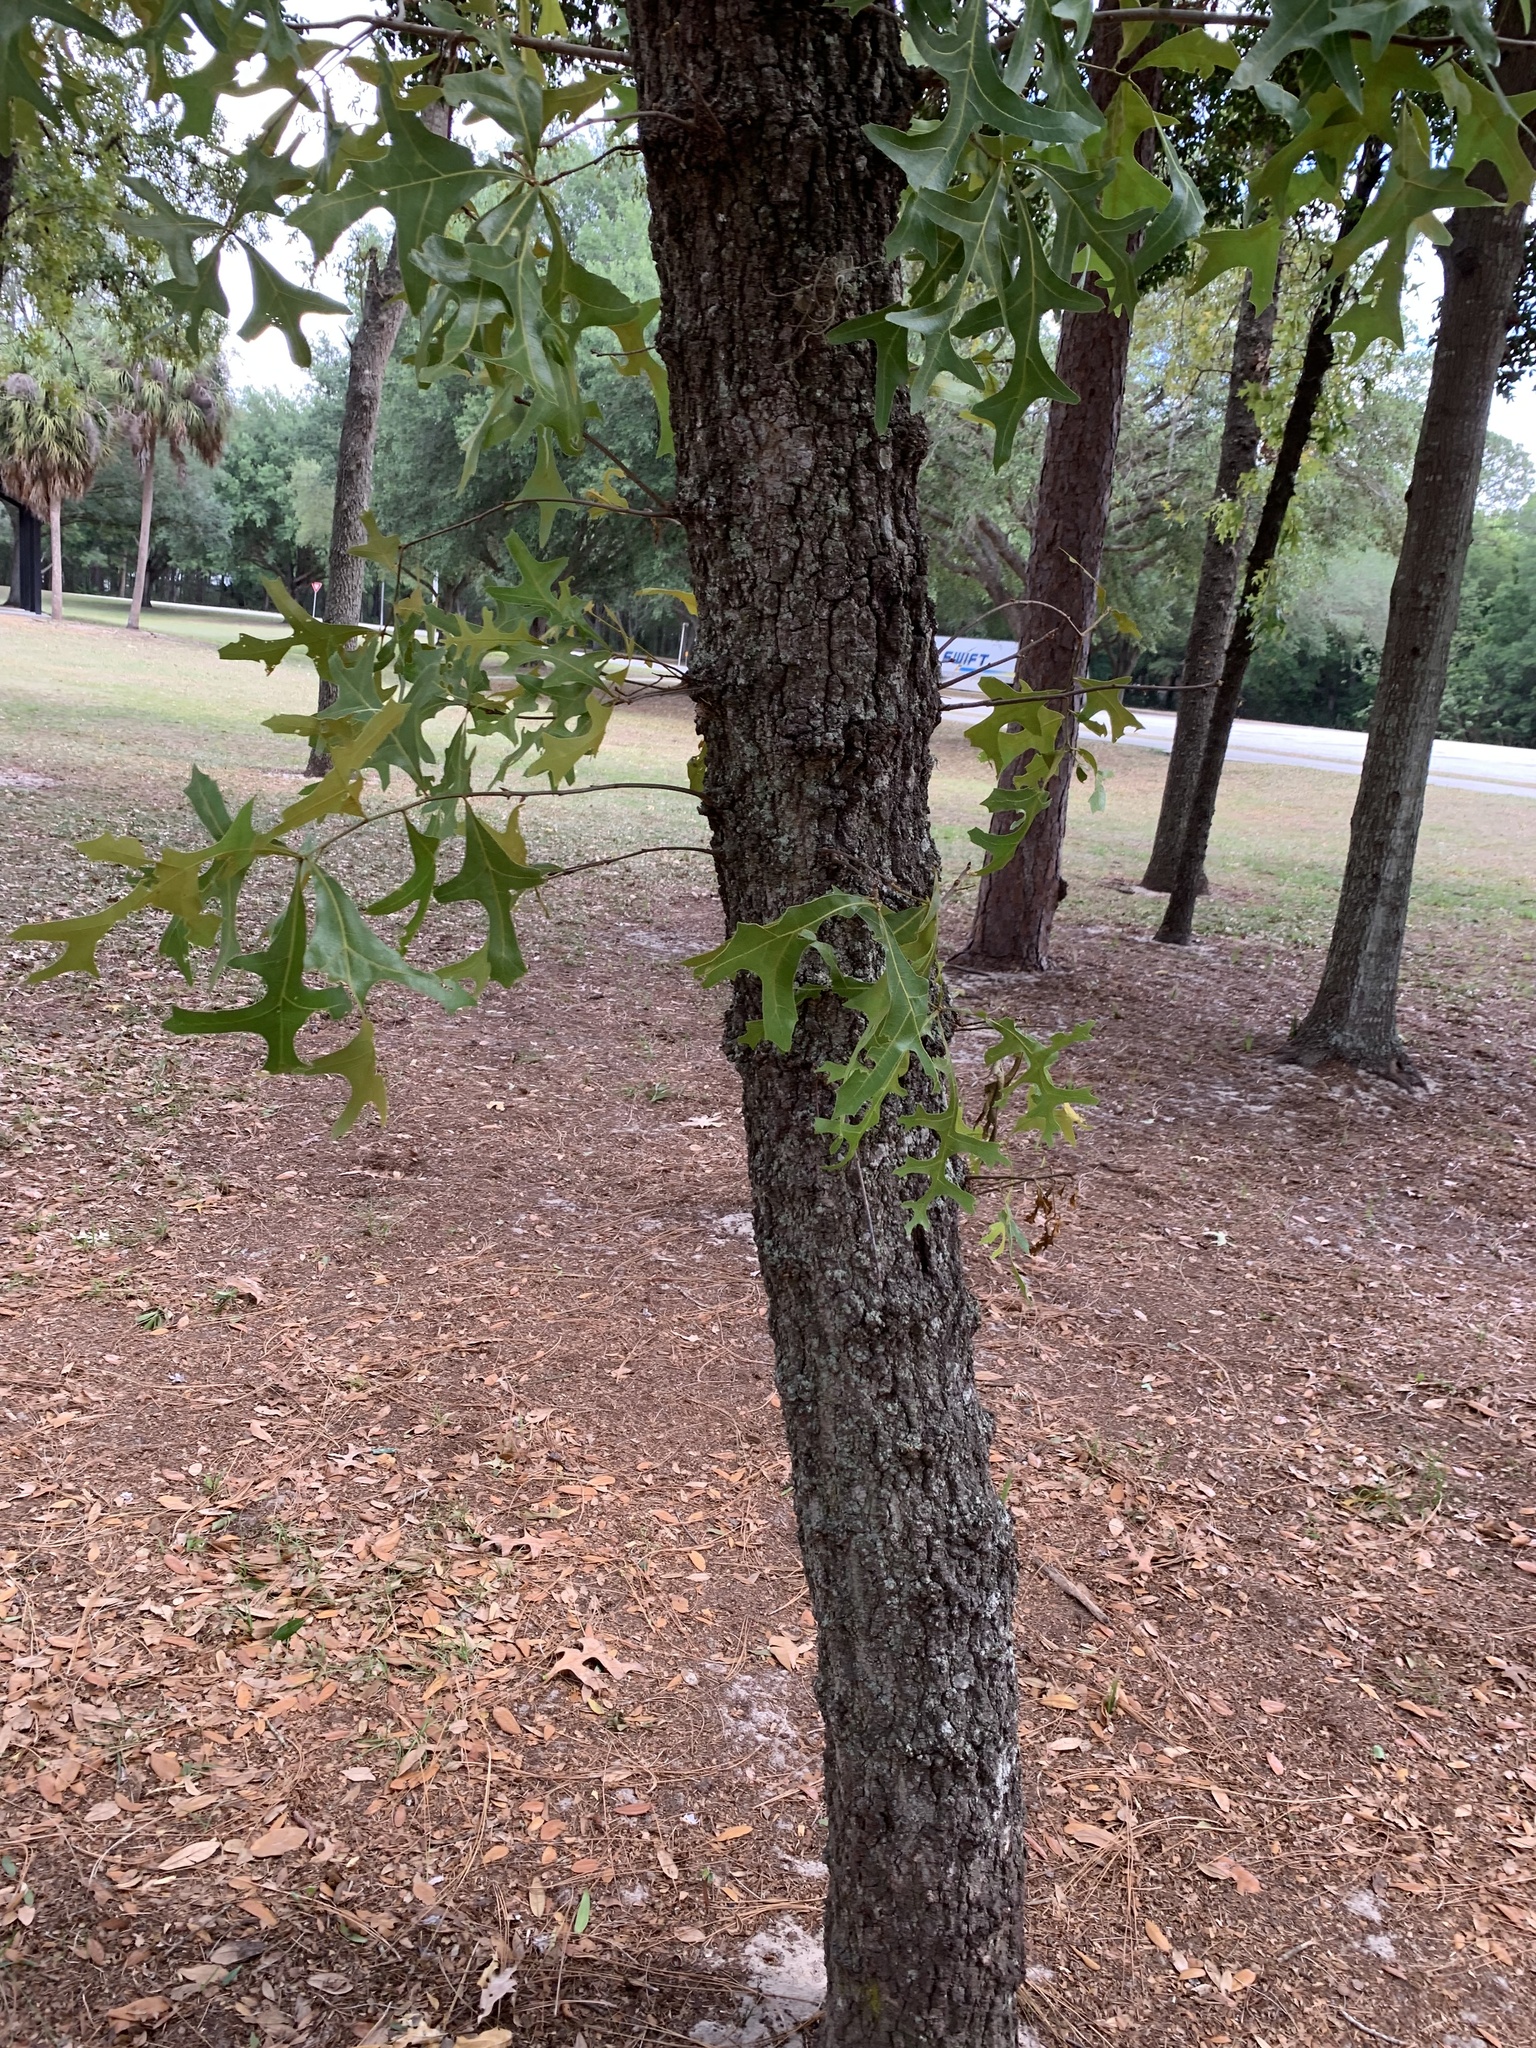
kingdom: Plantae
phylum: Tracheophyta
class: Magnoliopsida
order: Fagales
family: Fagaceae
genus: Quercus
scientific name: Quercus laevis
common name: Turkey oak
